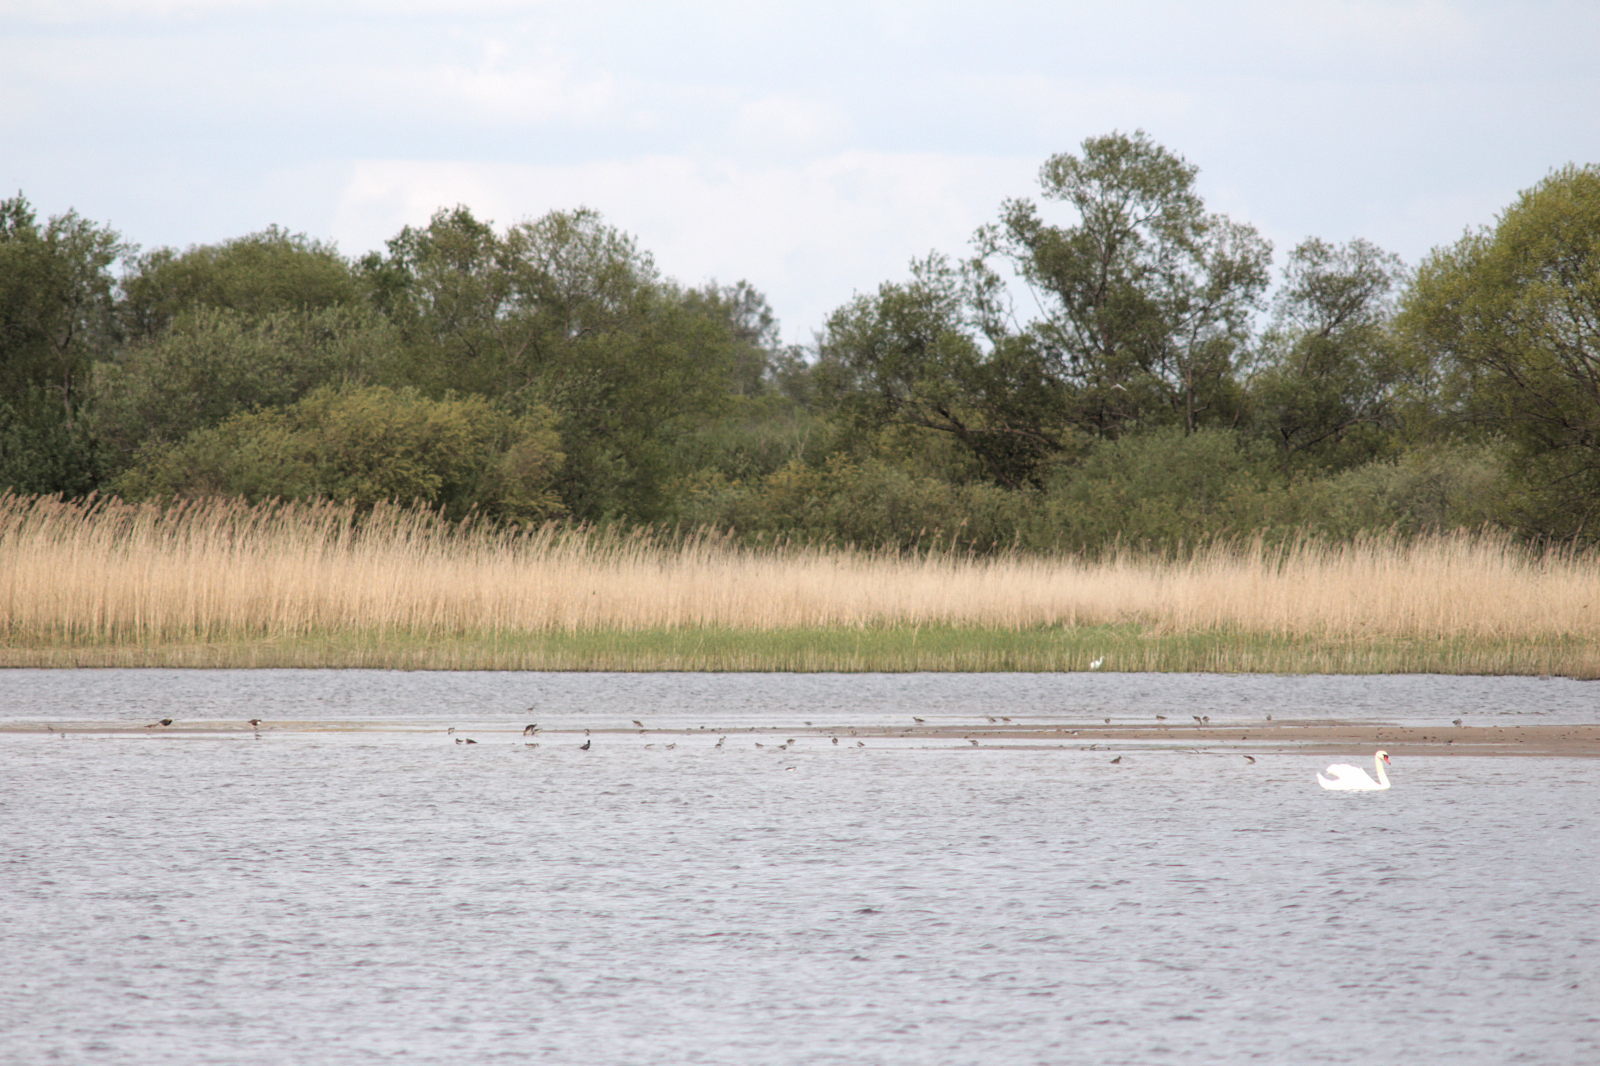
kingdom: Animalia
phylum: Chordata
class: Aves
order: Anseriformes
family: Anatidae
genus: Cygnus
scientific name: Cygnus olor
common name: Mute swan
